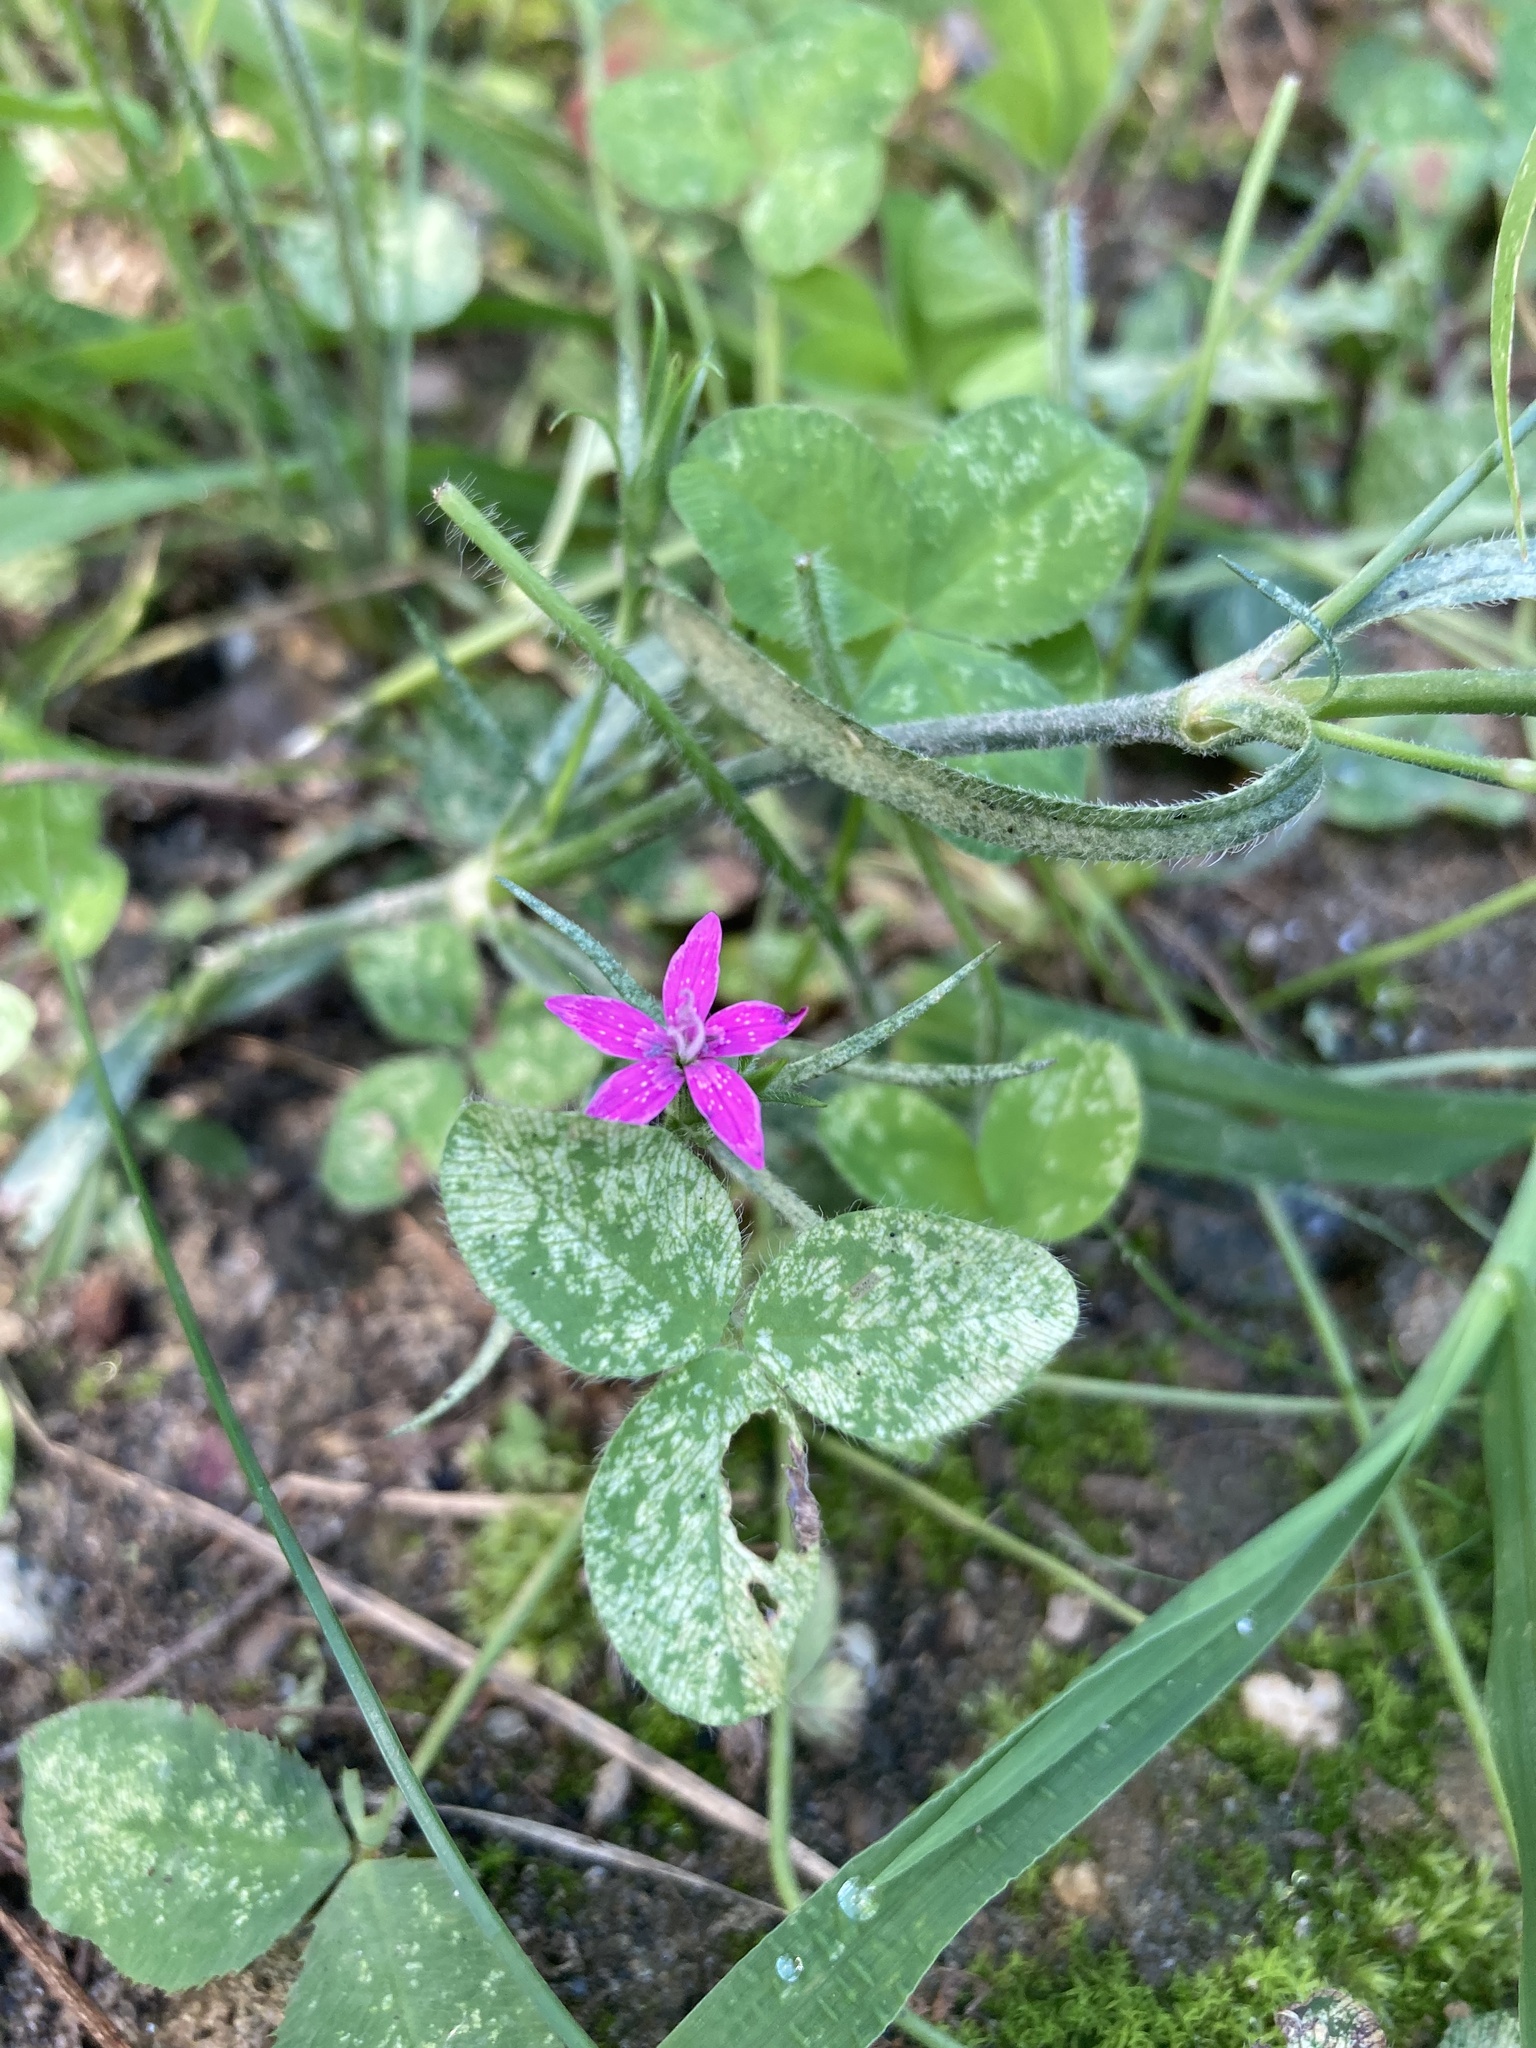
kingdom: Plantae
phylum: Tracheophyta
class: Magnoliopsida
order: Caryophyllales
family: Caryophyllaceae
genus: Dianthus
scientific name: Dianthus armeria
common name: Deptford pink
